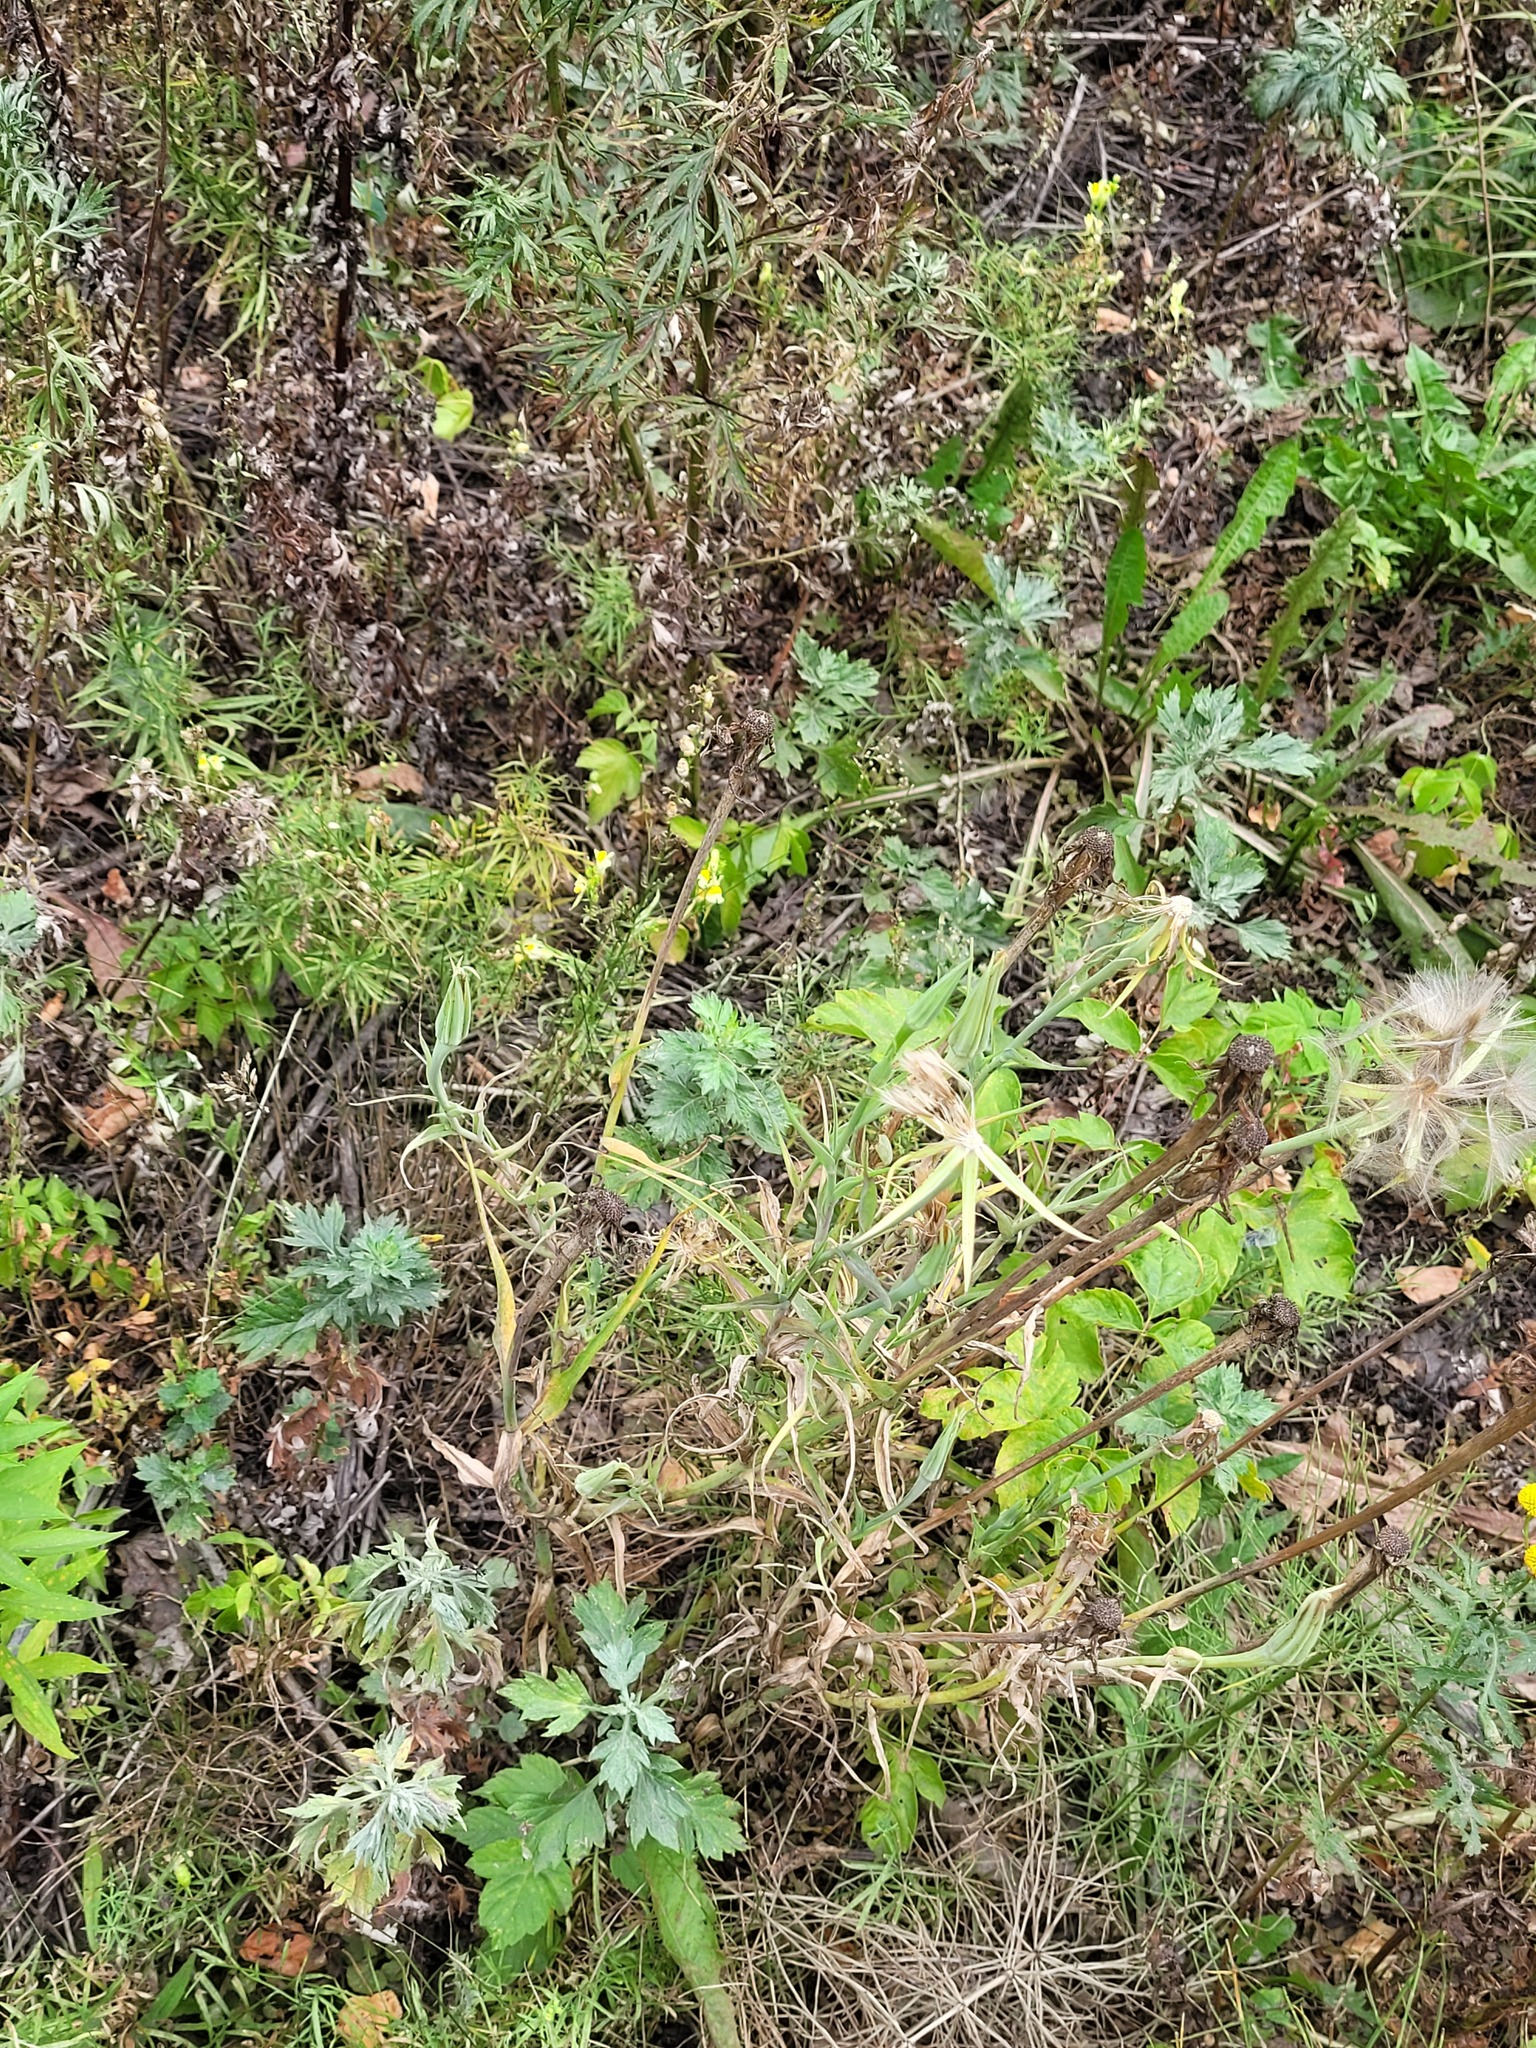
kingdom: Plantae
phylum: Tracheophyta
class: Magnoliopsida
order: Asterales
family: Asteraceae
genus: Tragopogon
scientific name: Tragopogon dubius
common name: Yellow salsify
